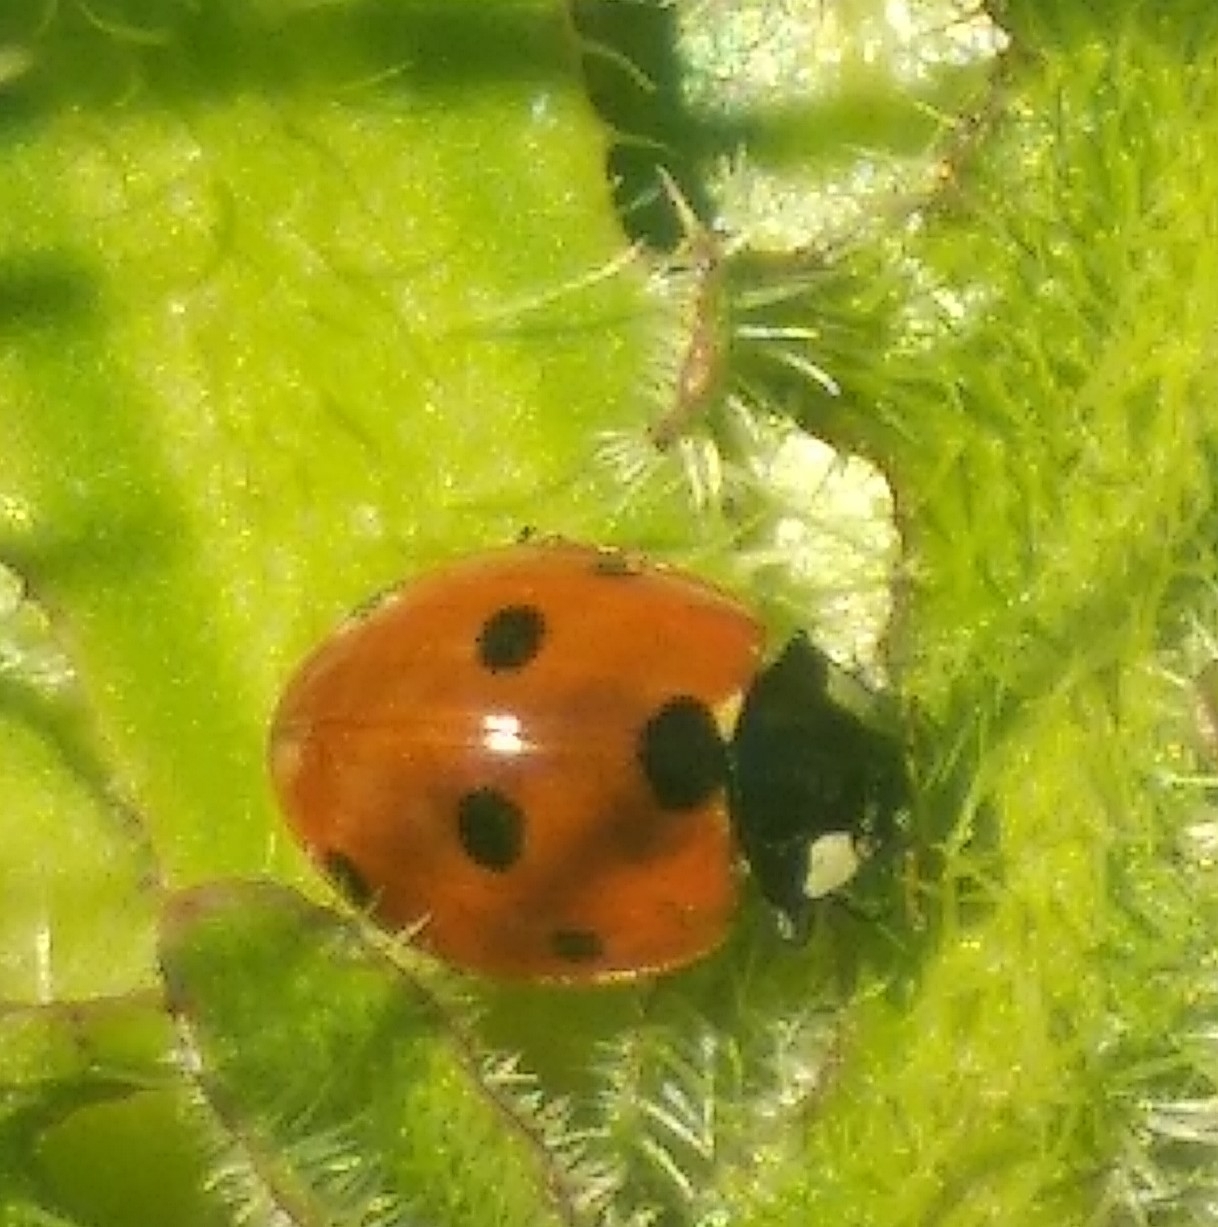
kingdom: Animalia
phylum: Arthropoda
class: Insecta
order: Coleoptera
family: Coccinellidae
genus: Coccinella
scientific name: Coccinella septempunctata
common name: Sevenspotted lady beetle
